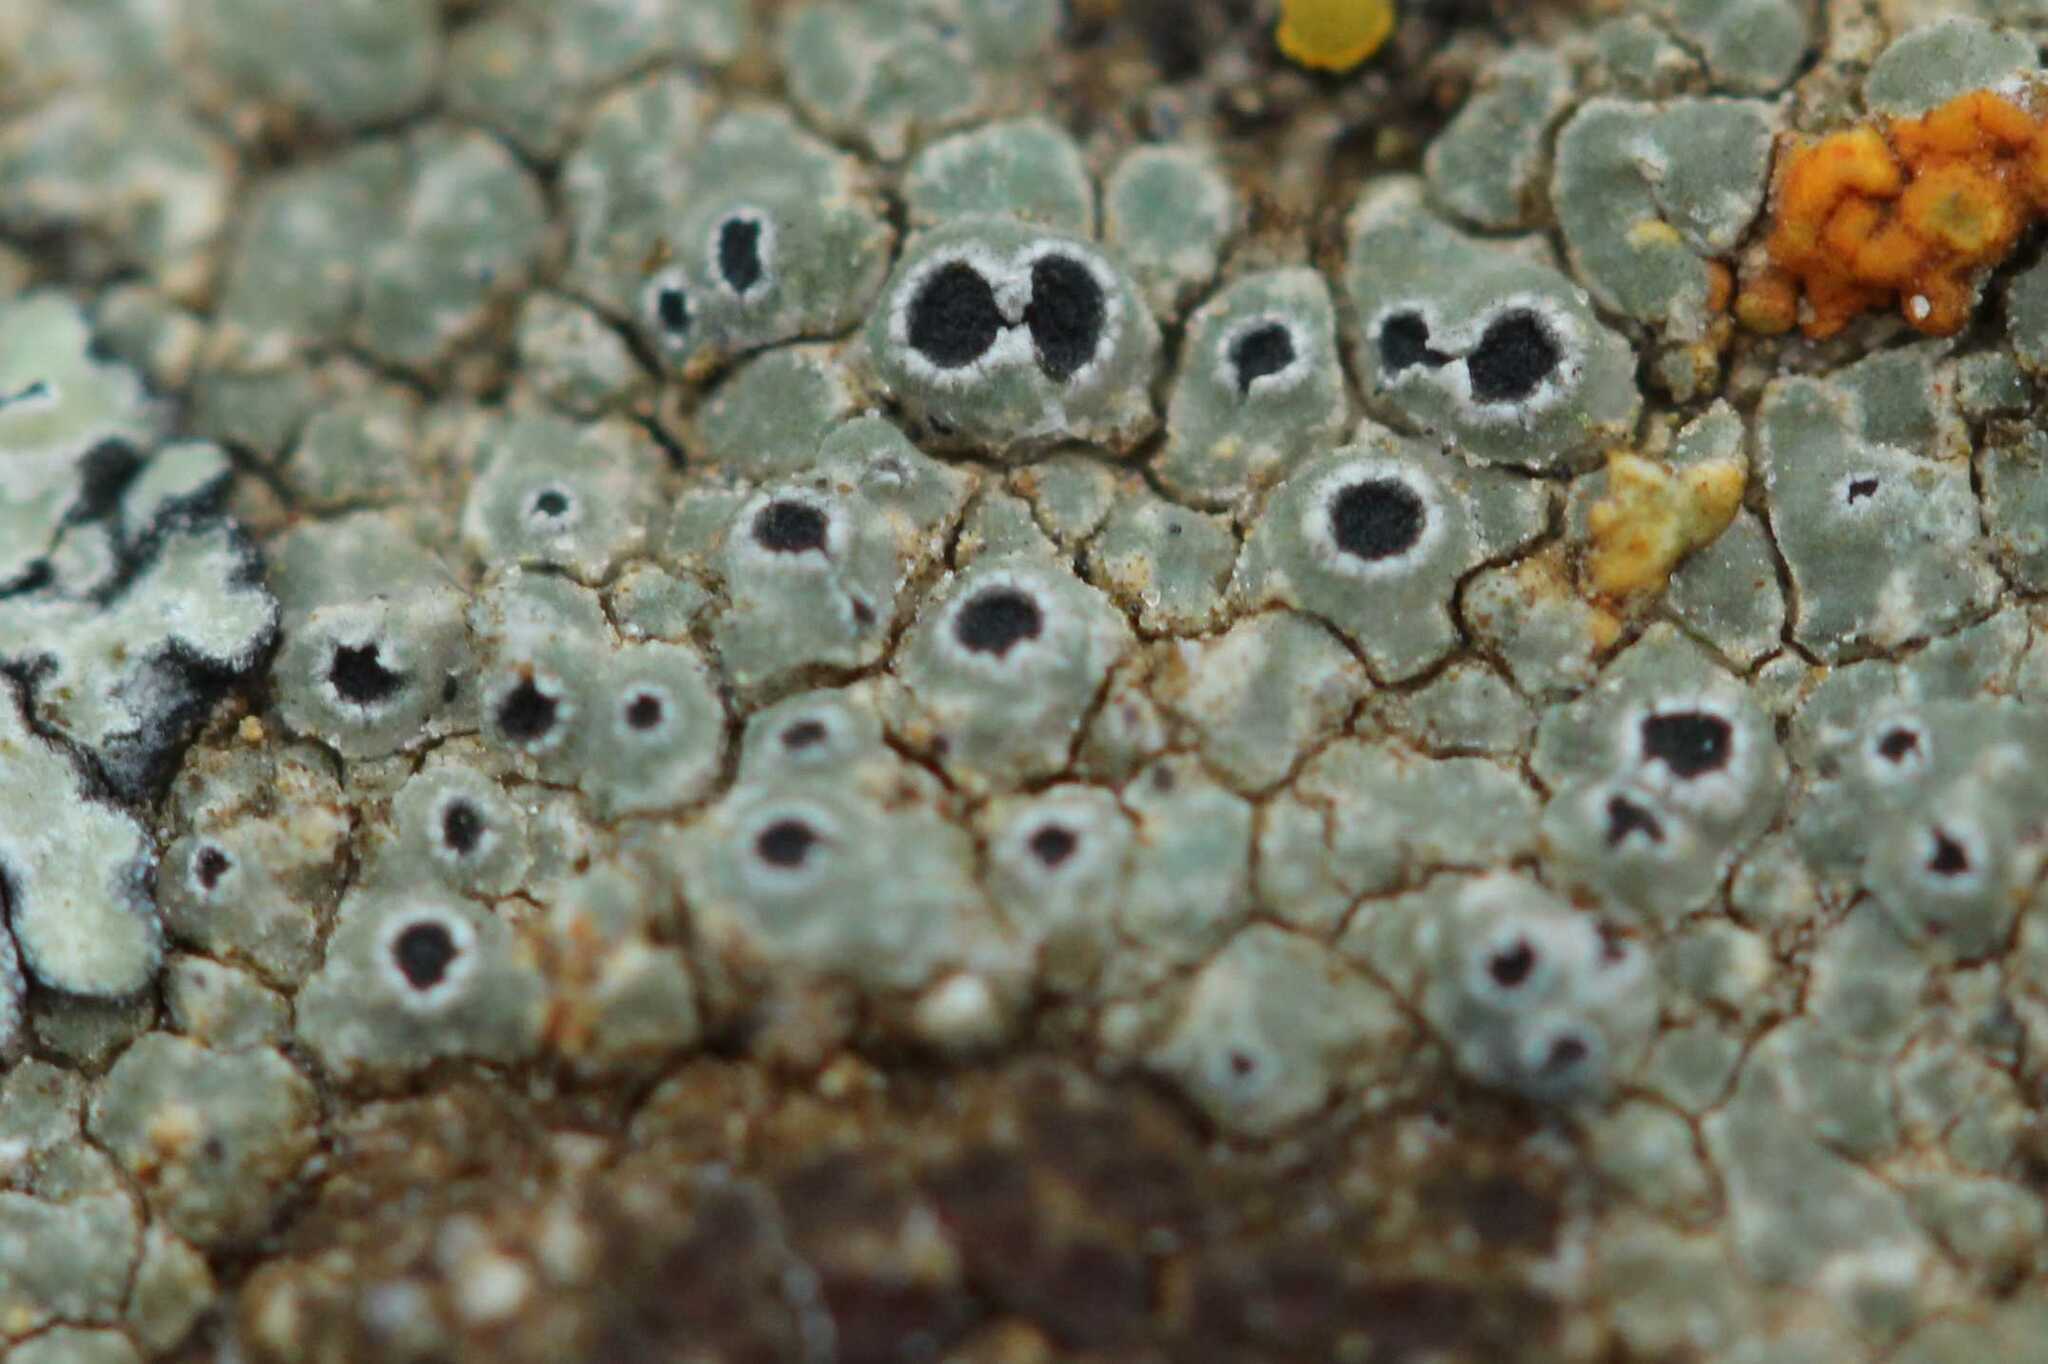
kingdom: Fungi
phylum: Ascomycota
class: Lecanoromycetes
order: Pertusariales
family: Megasporaceae
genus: Circinaria
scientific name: Circinaria contorta
